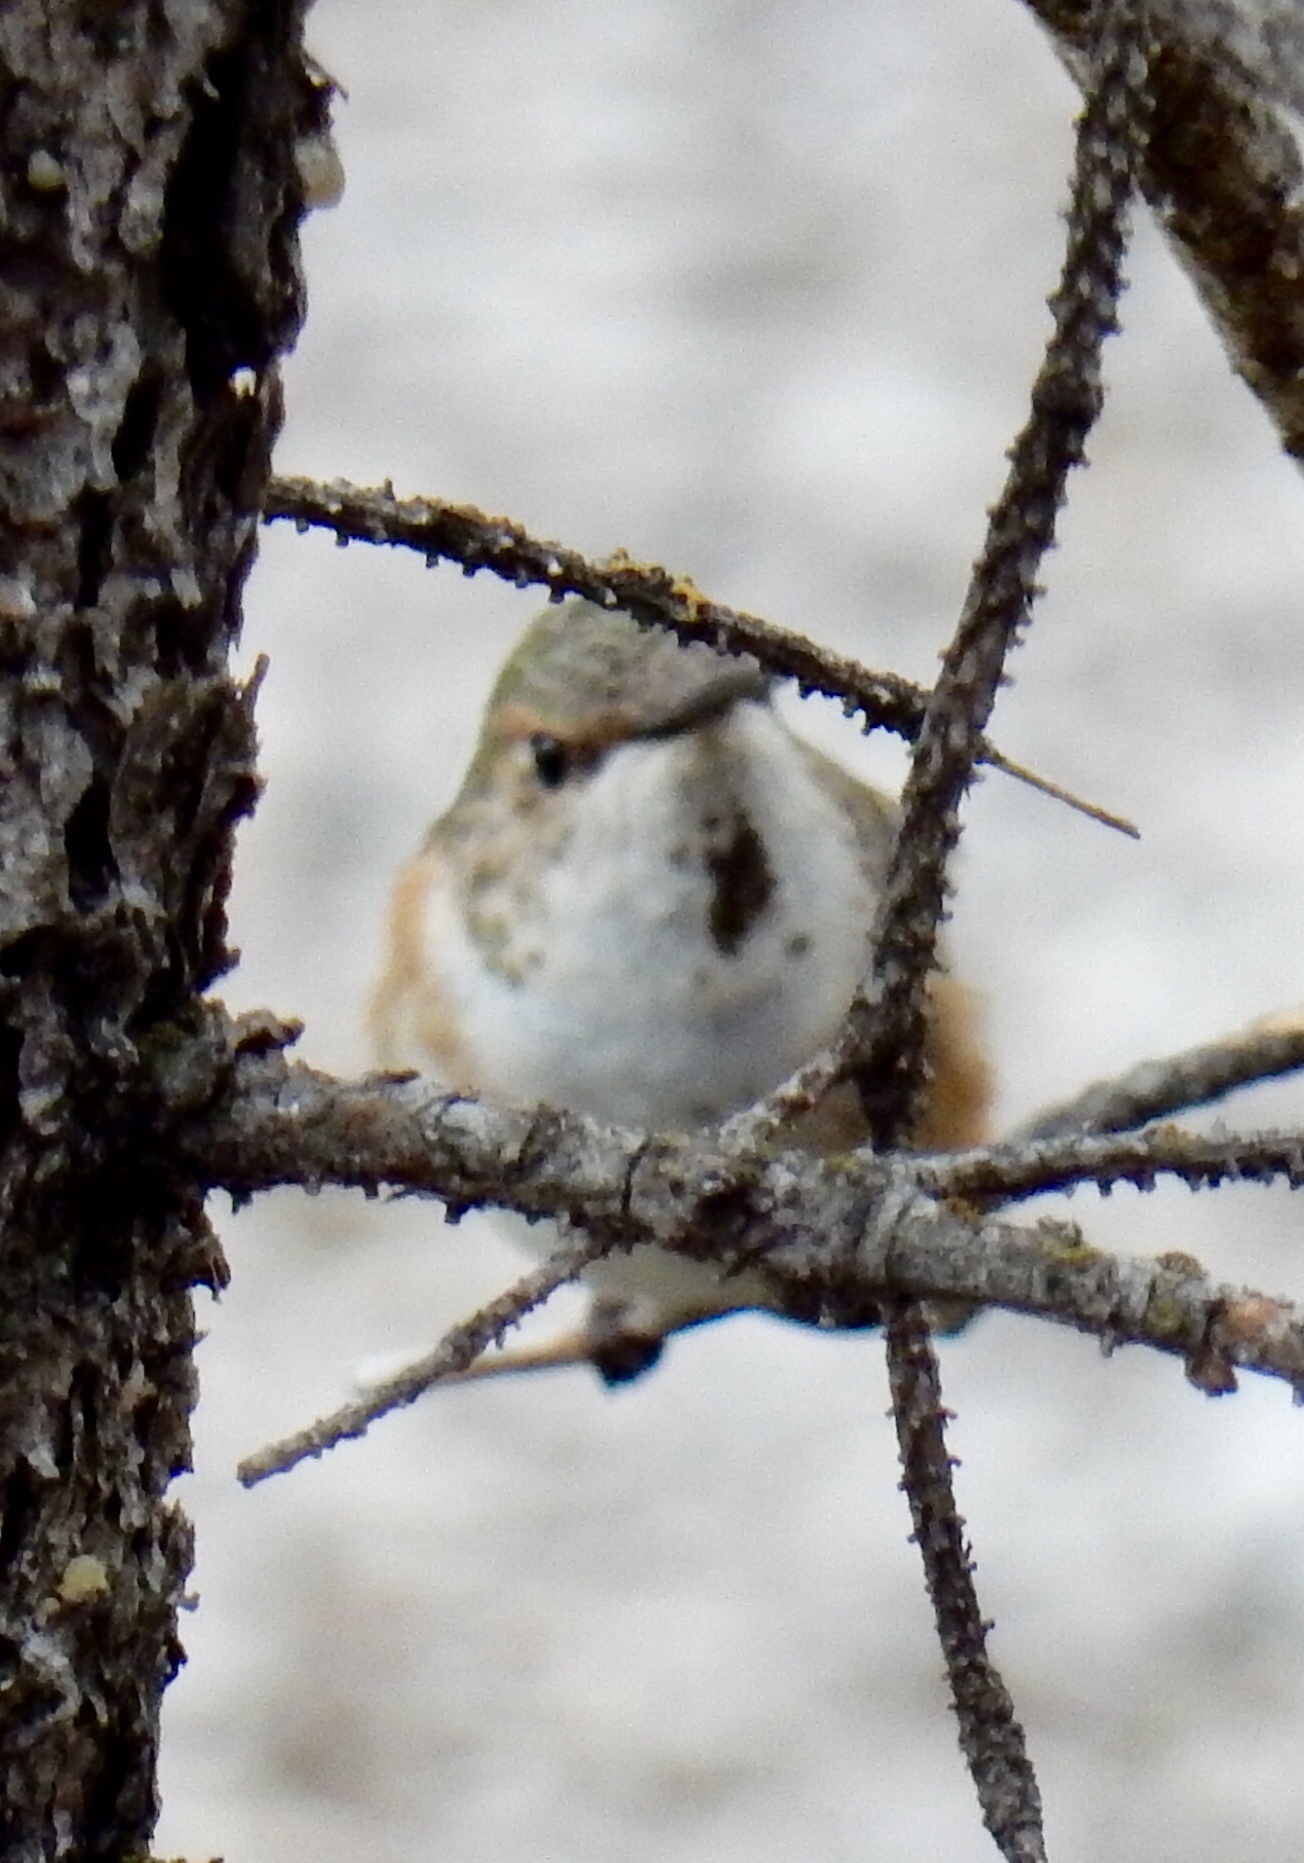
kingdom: Animalia
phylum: Chordata
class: Aves
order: Apodiformes
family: Trochilidae
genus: Selasphorus
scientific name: Selasphorus rufus
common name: Rufous hummingbird
